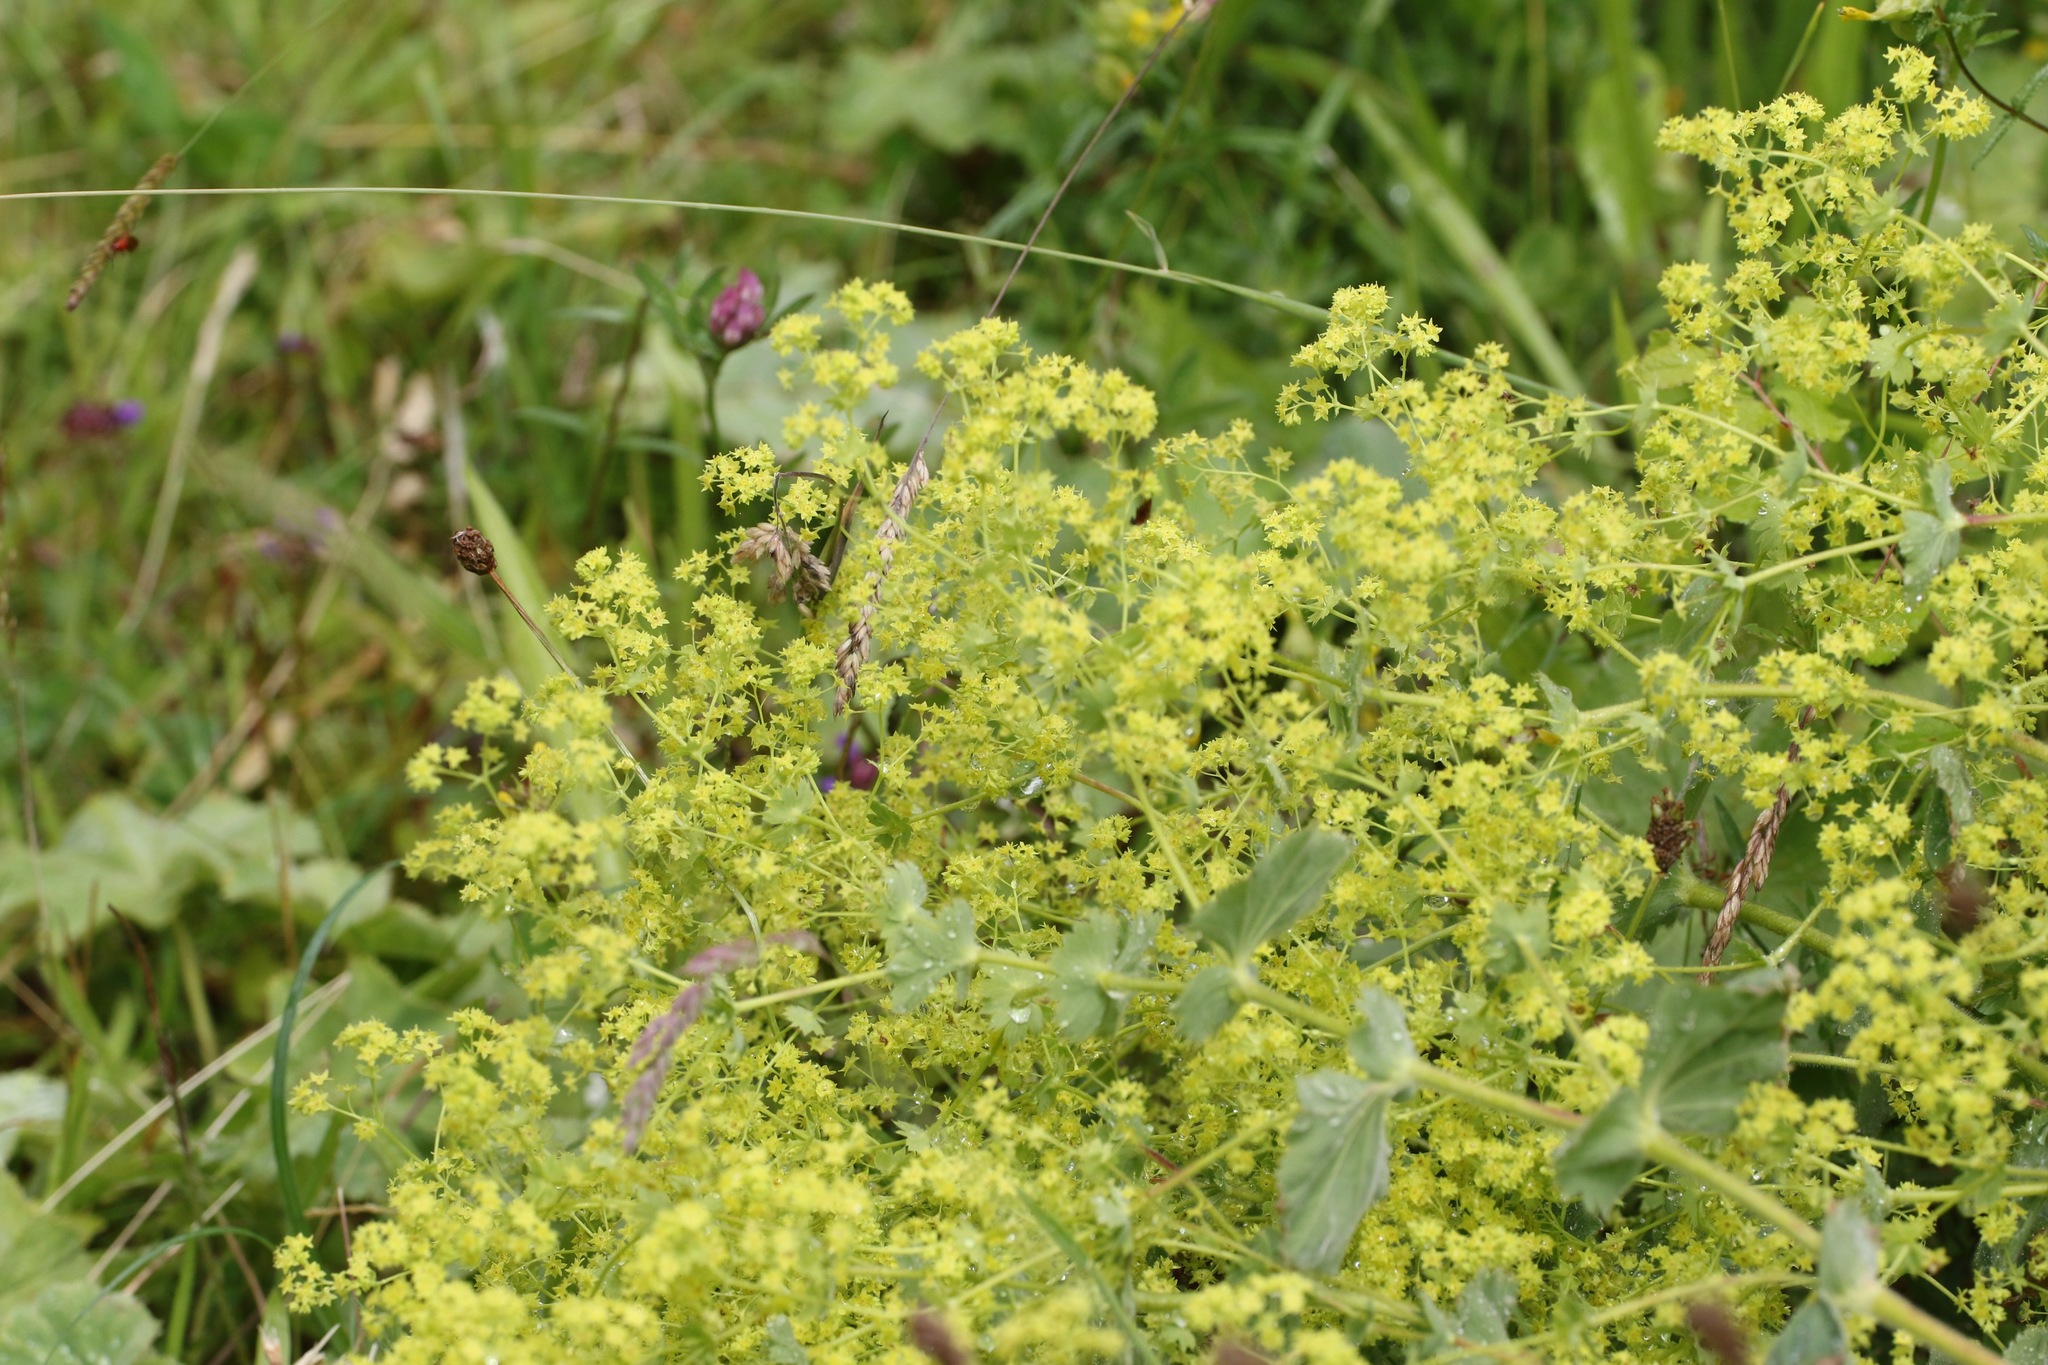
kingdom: Plantae
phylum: Tracheophyta
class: Magnoliopsida
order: Rosales
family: Rosaceae
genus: Alchemilla
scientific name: Alchemilla mollis
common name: Lady's-mantle
